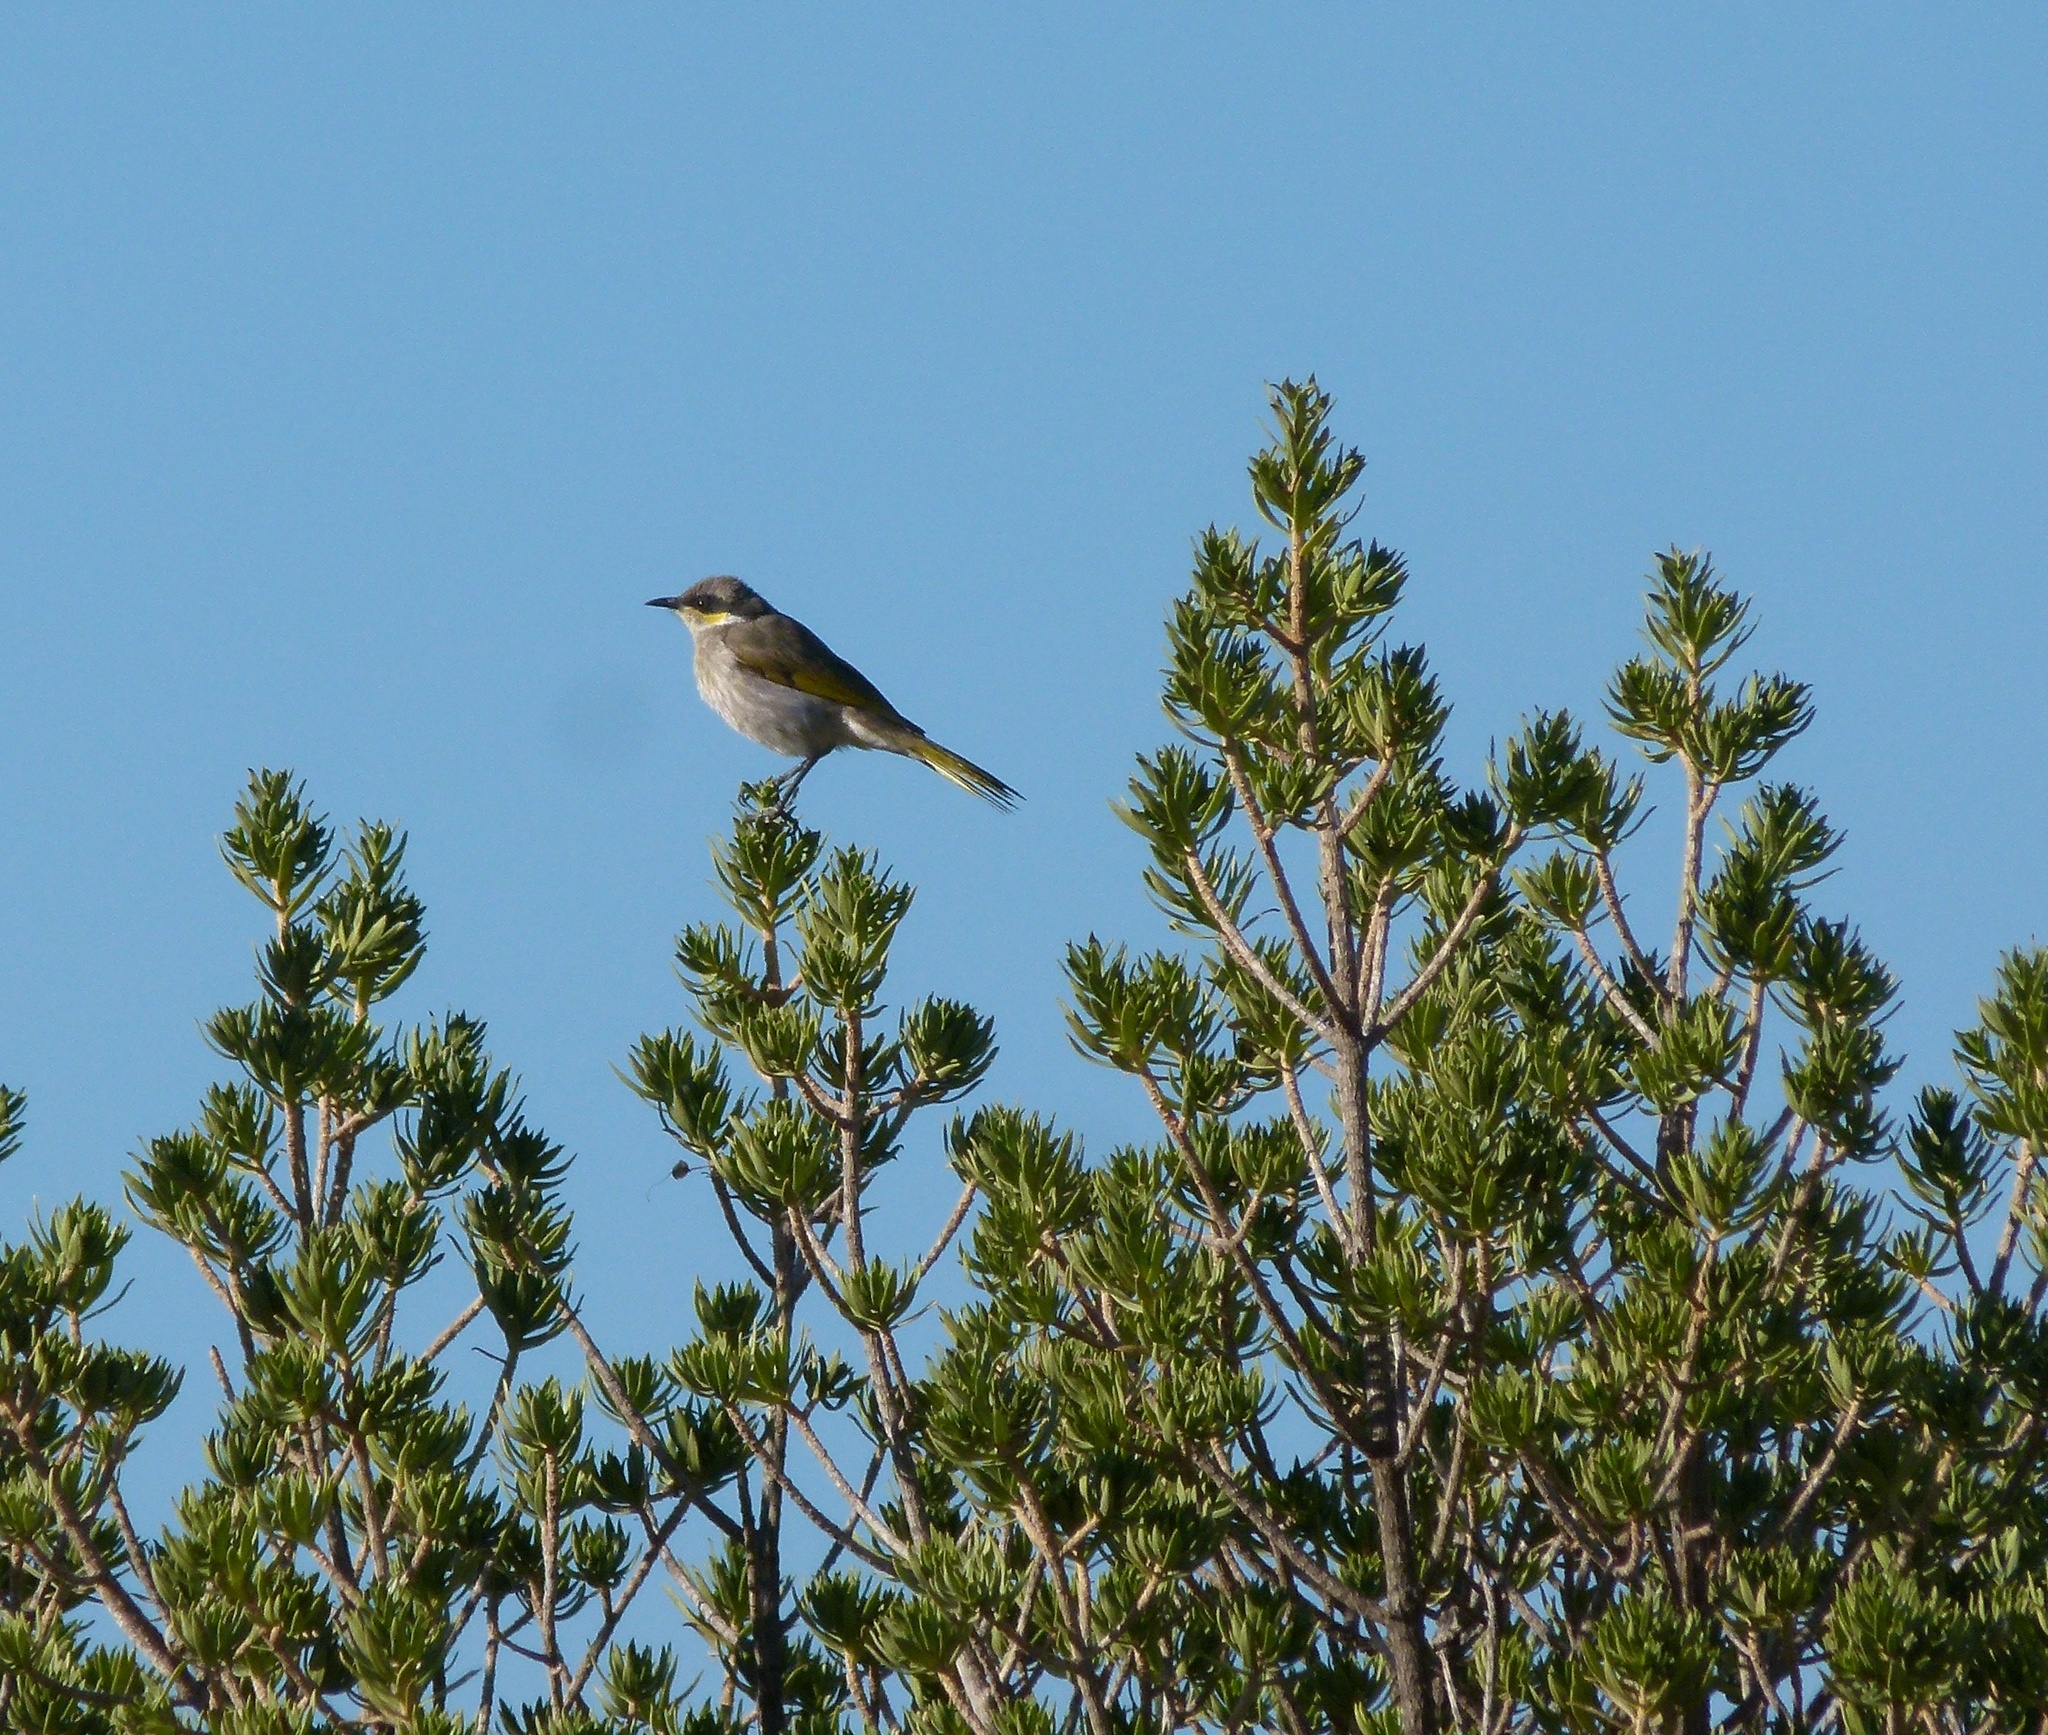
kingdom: Animalia
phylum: Chordata
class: Aves
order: Passeriformes
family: Meliphagidae
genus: Gavicalis
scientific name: Gavicalis virescens
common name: Singing honeyeater
